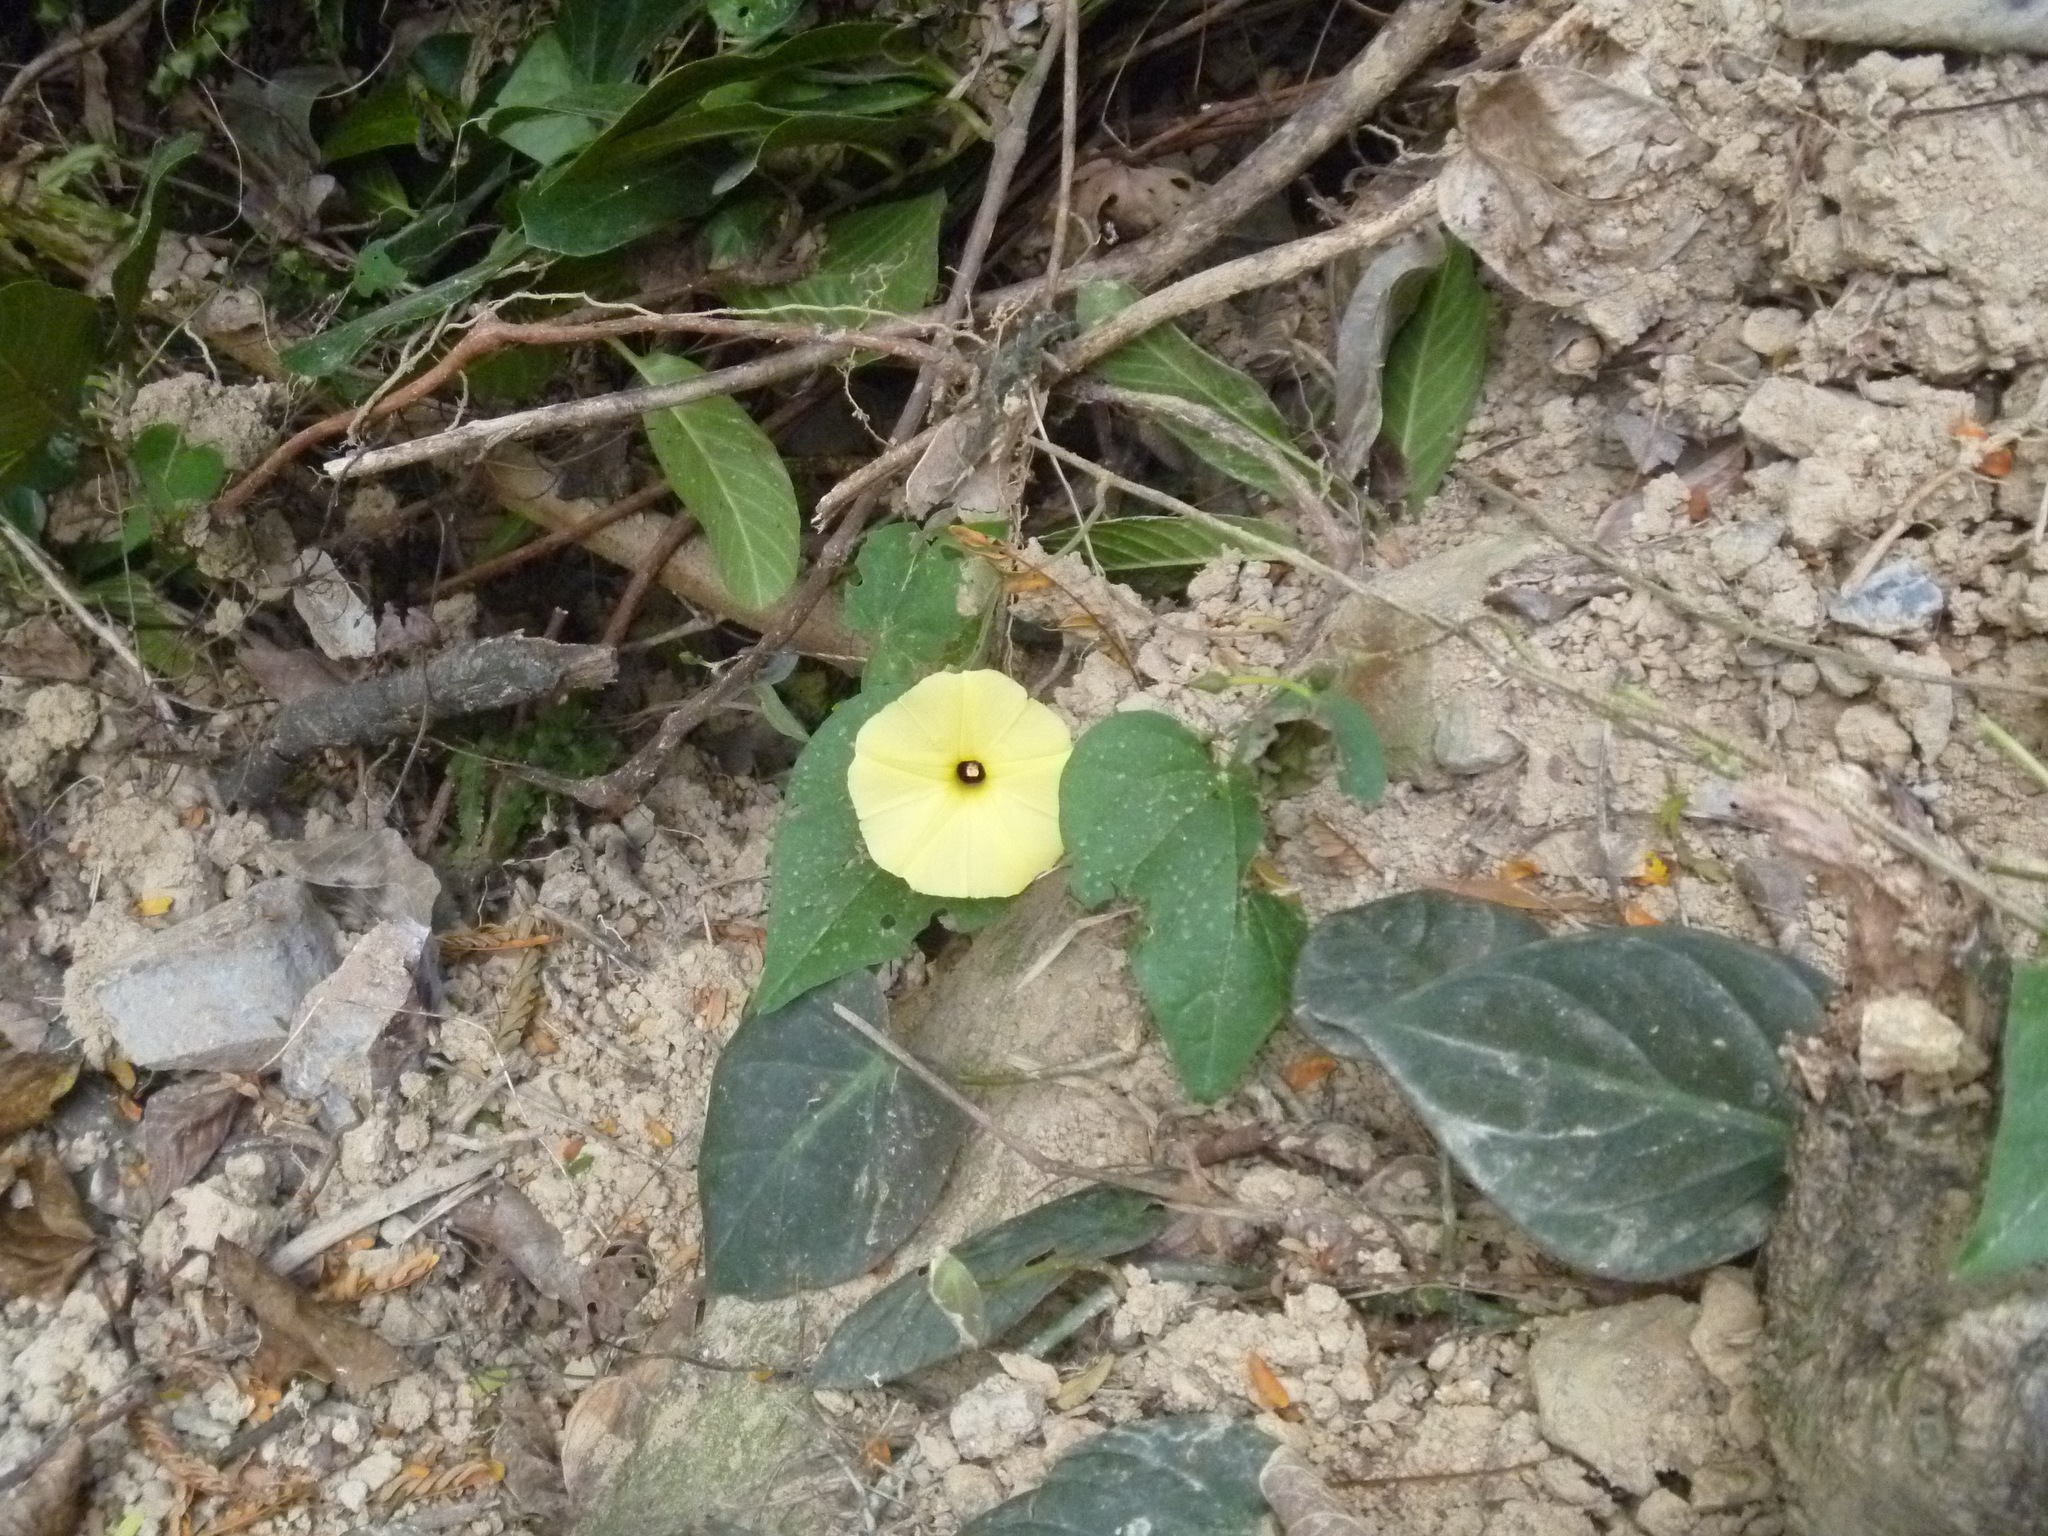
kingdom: Plantae
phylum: Tracheophyta
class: Magnoliopsida
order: Solanales
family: Convolvulaceae
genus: Ipomoea
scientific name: Ipomoea ochracea
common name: Fence morning-glory
